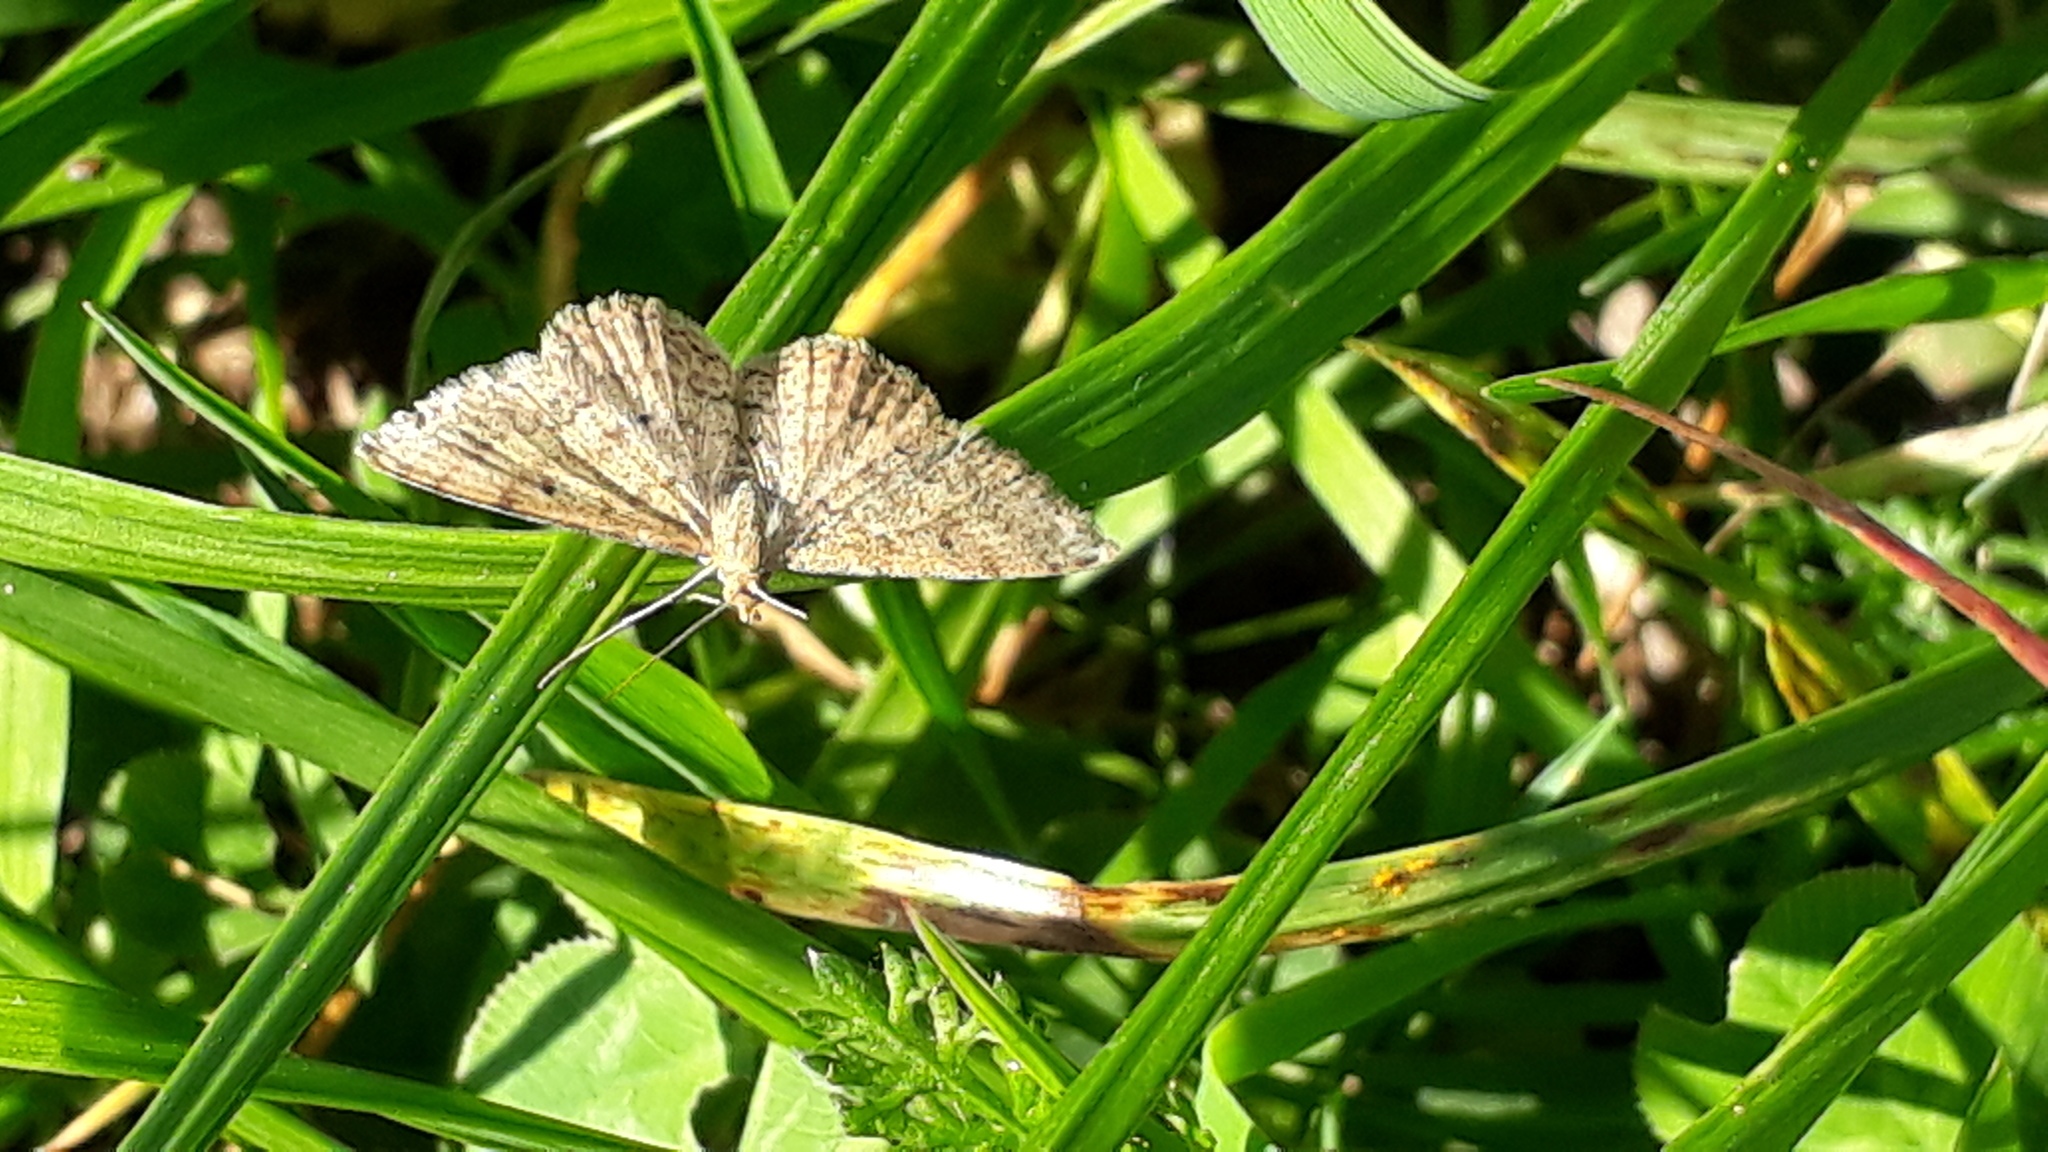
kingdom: Animalia
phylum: Arthropoda
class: Insecta
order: Lepidoptera
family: Geometridae
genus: Scopula
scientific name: Scopula rubraria
